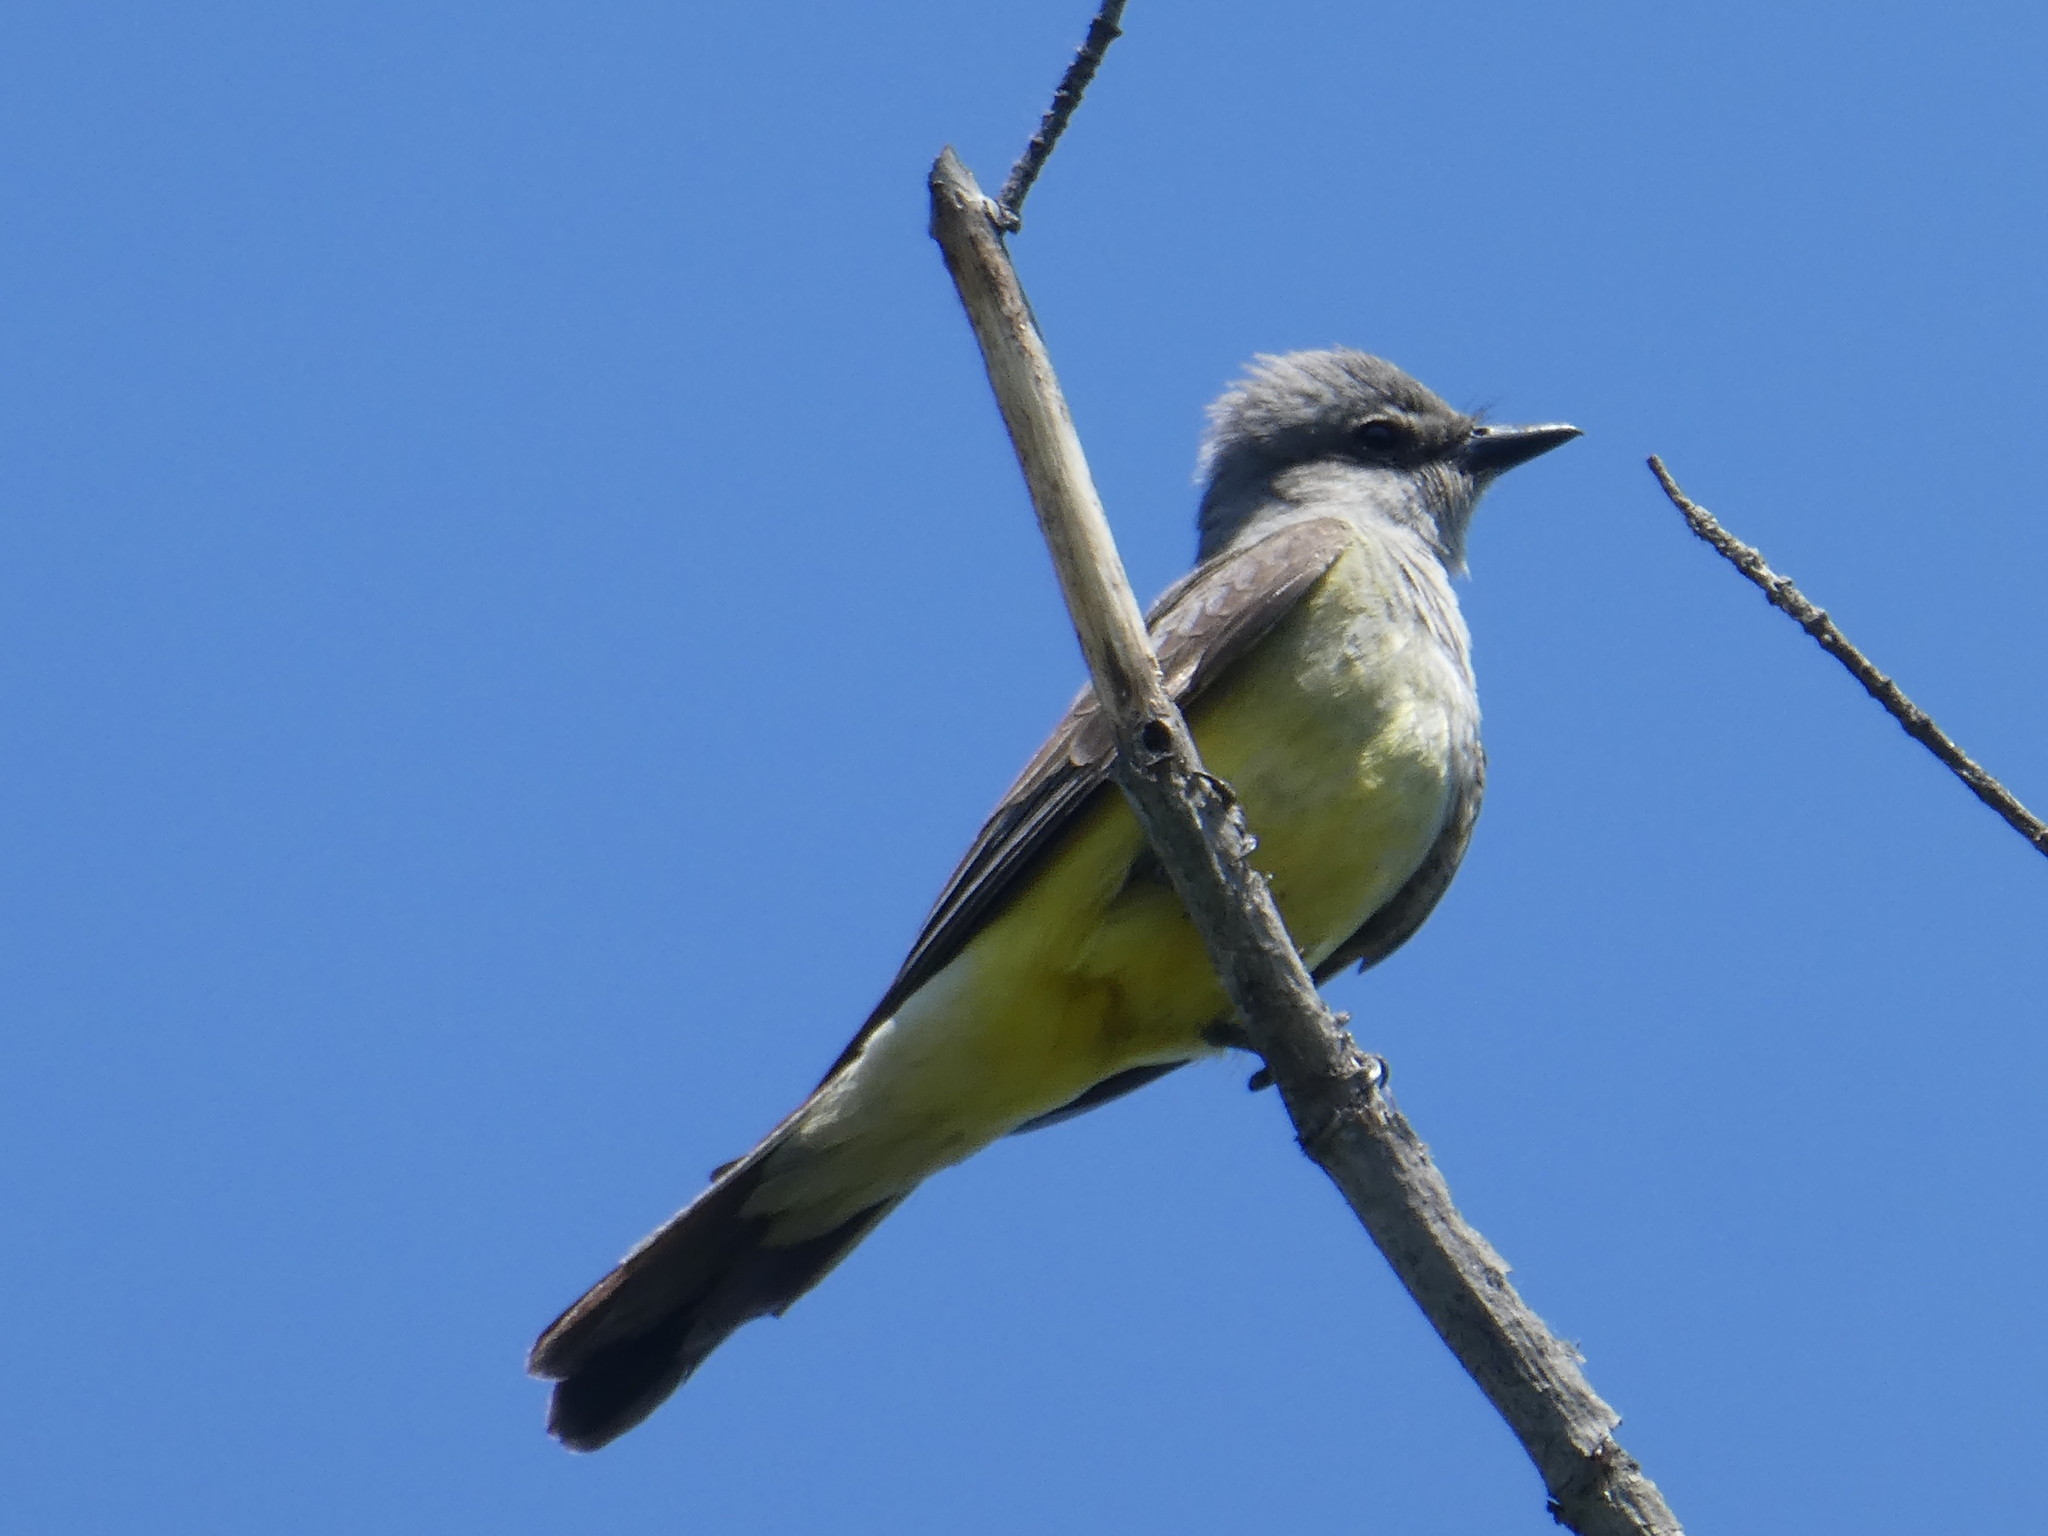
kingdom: Animalia
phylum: Chordata
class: Aves
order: Passeriformes
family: Tyrannidae
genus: Tyrannus
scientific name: Tyrannus verticalis
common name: Western kingbird
